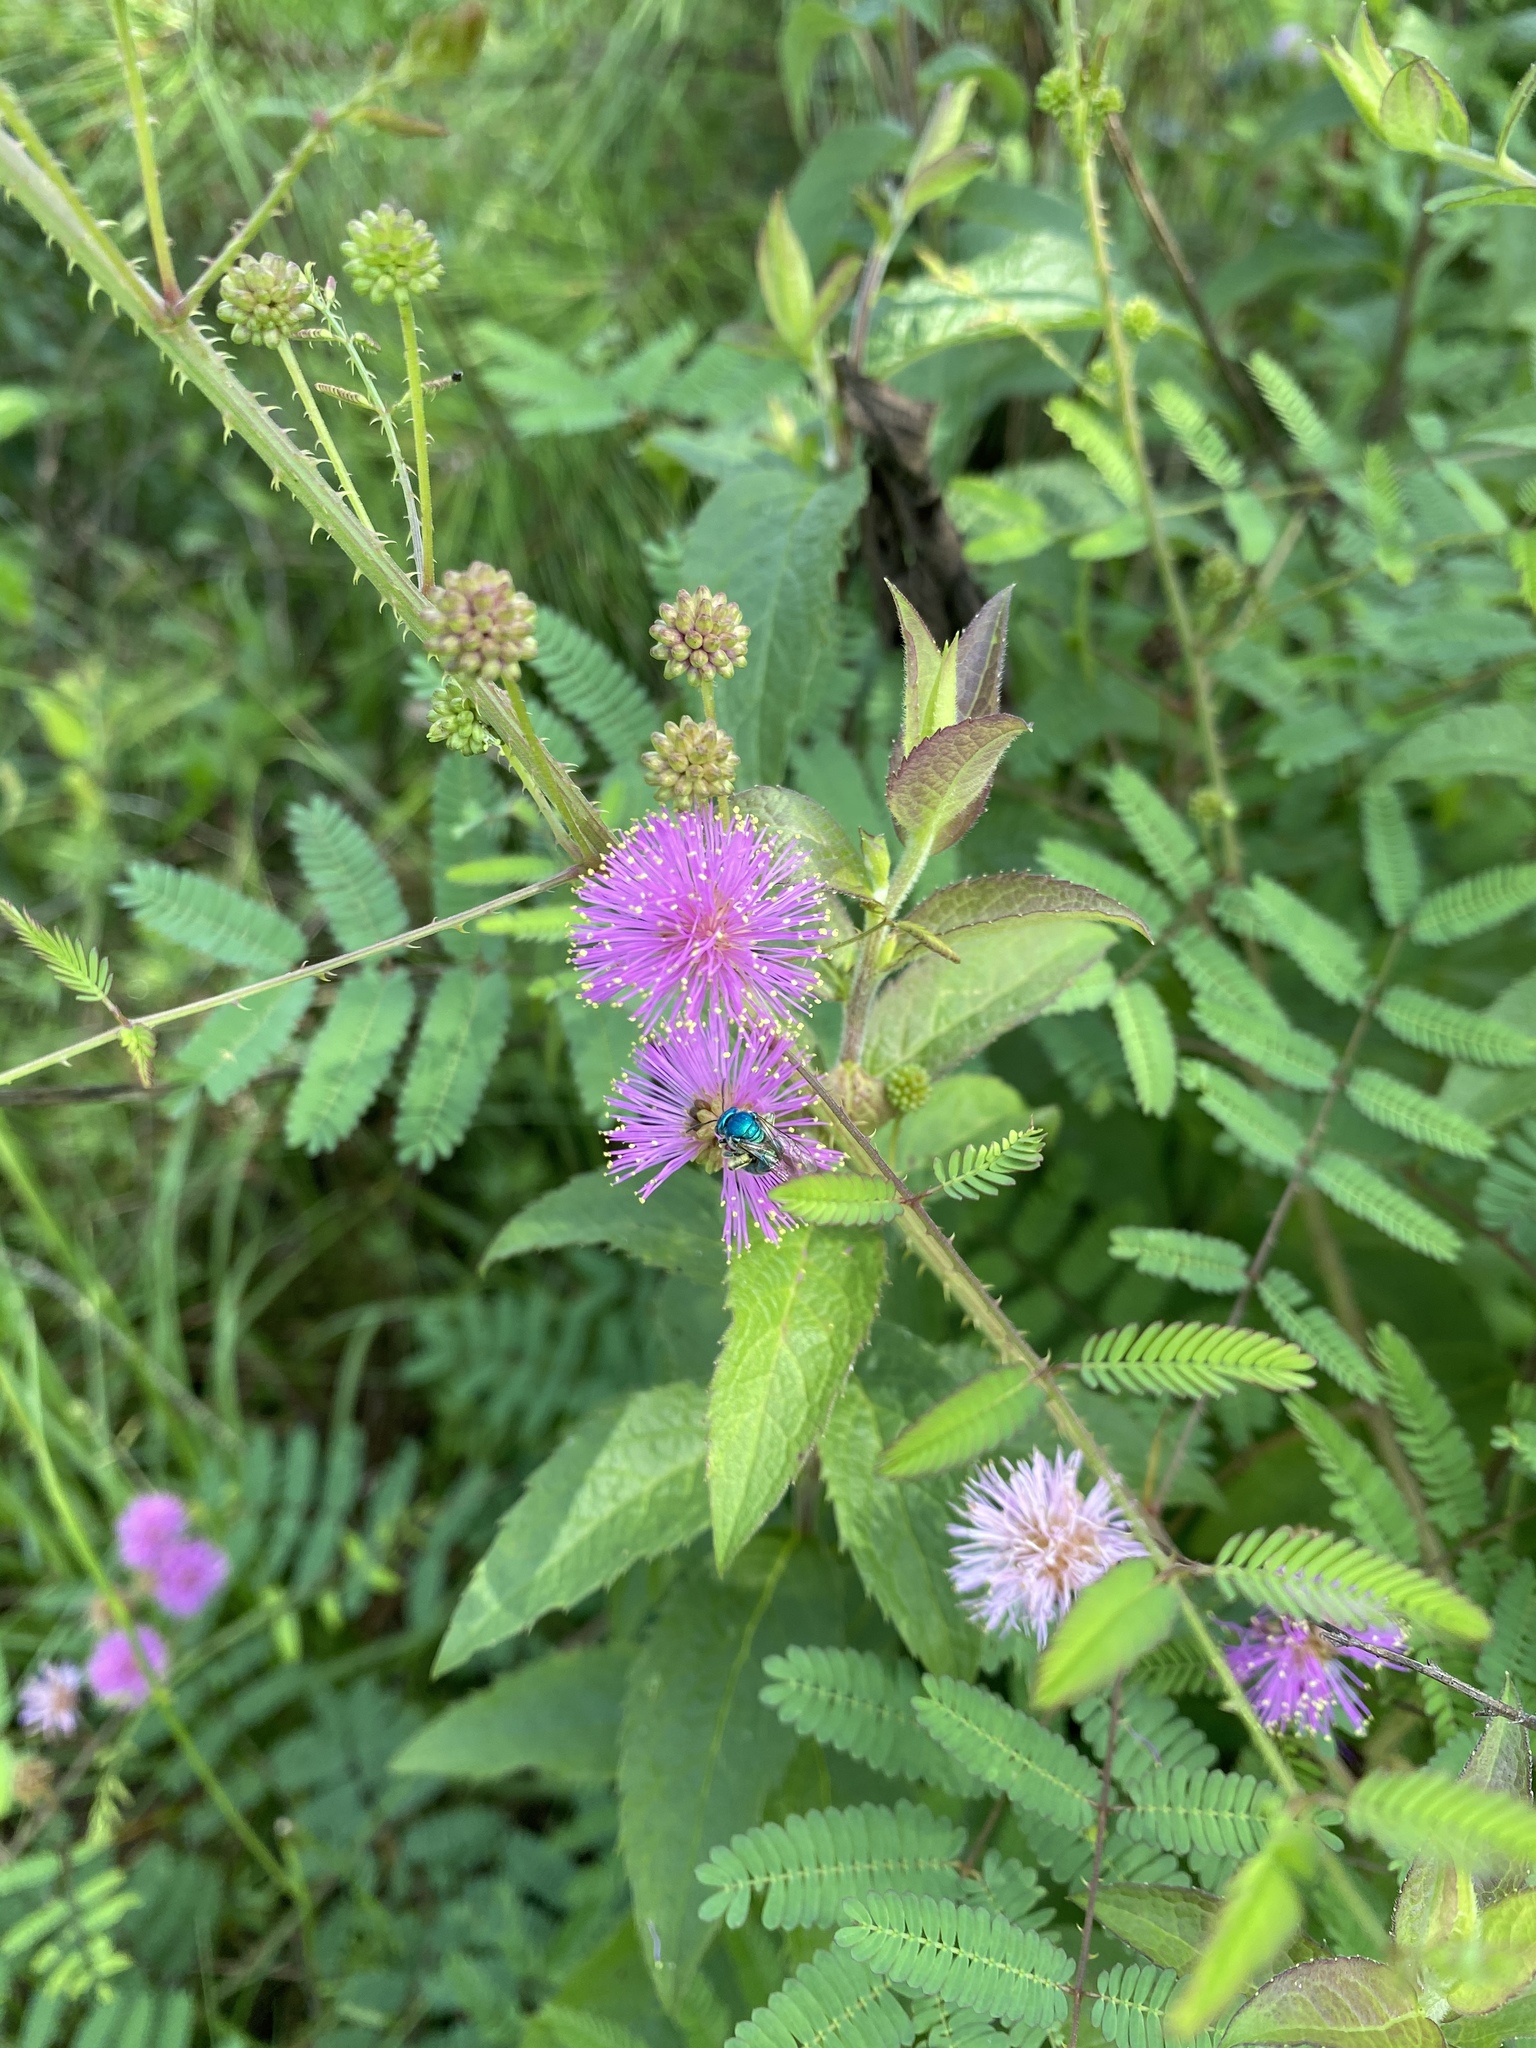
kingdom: Plantae
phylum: Tracheophyta
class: Magnoliopsida
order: Fabales
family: Fabaceae
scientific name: Fabaceae
